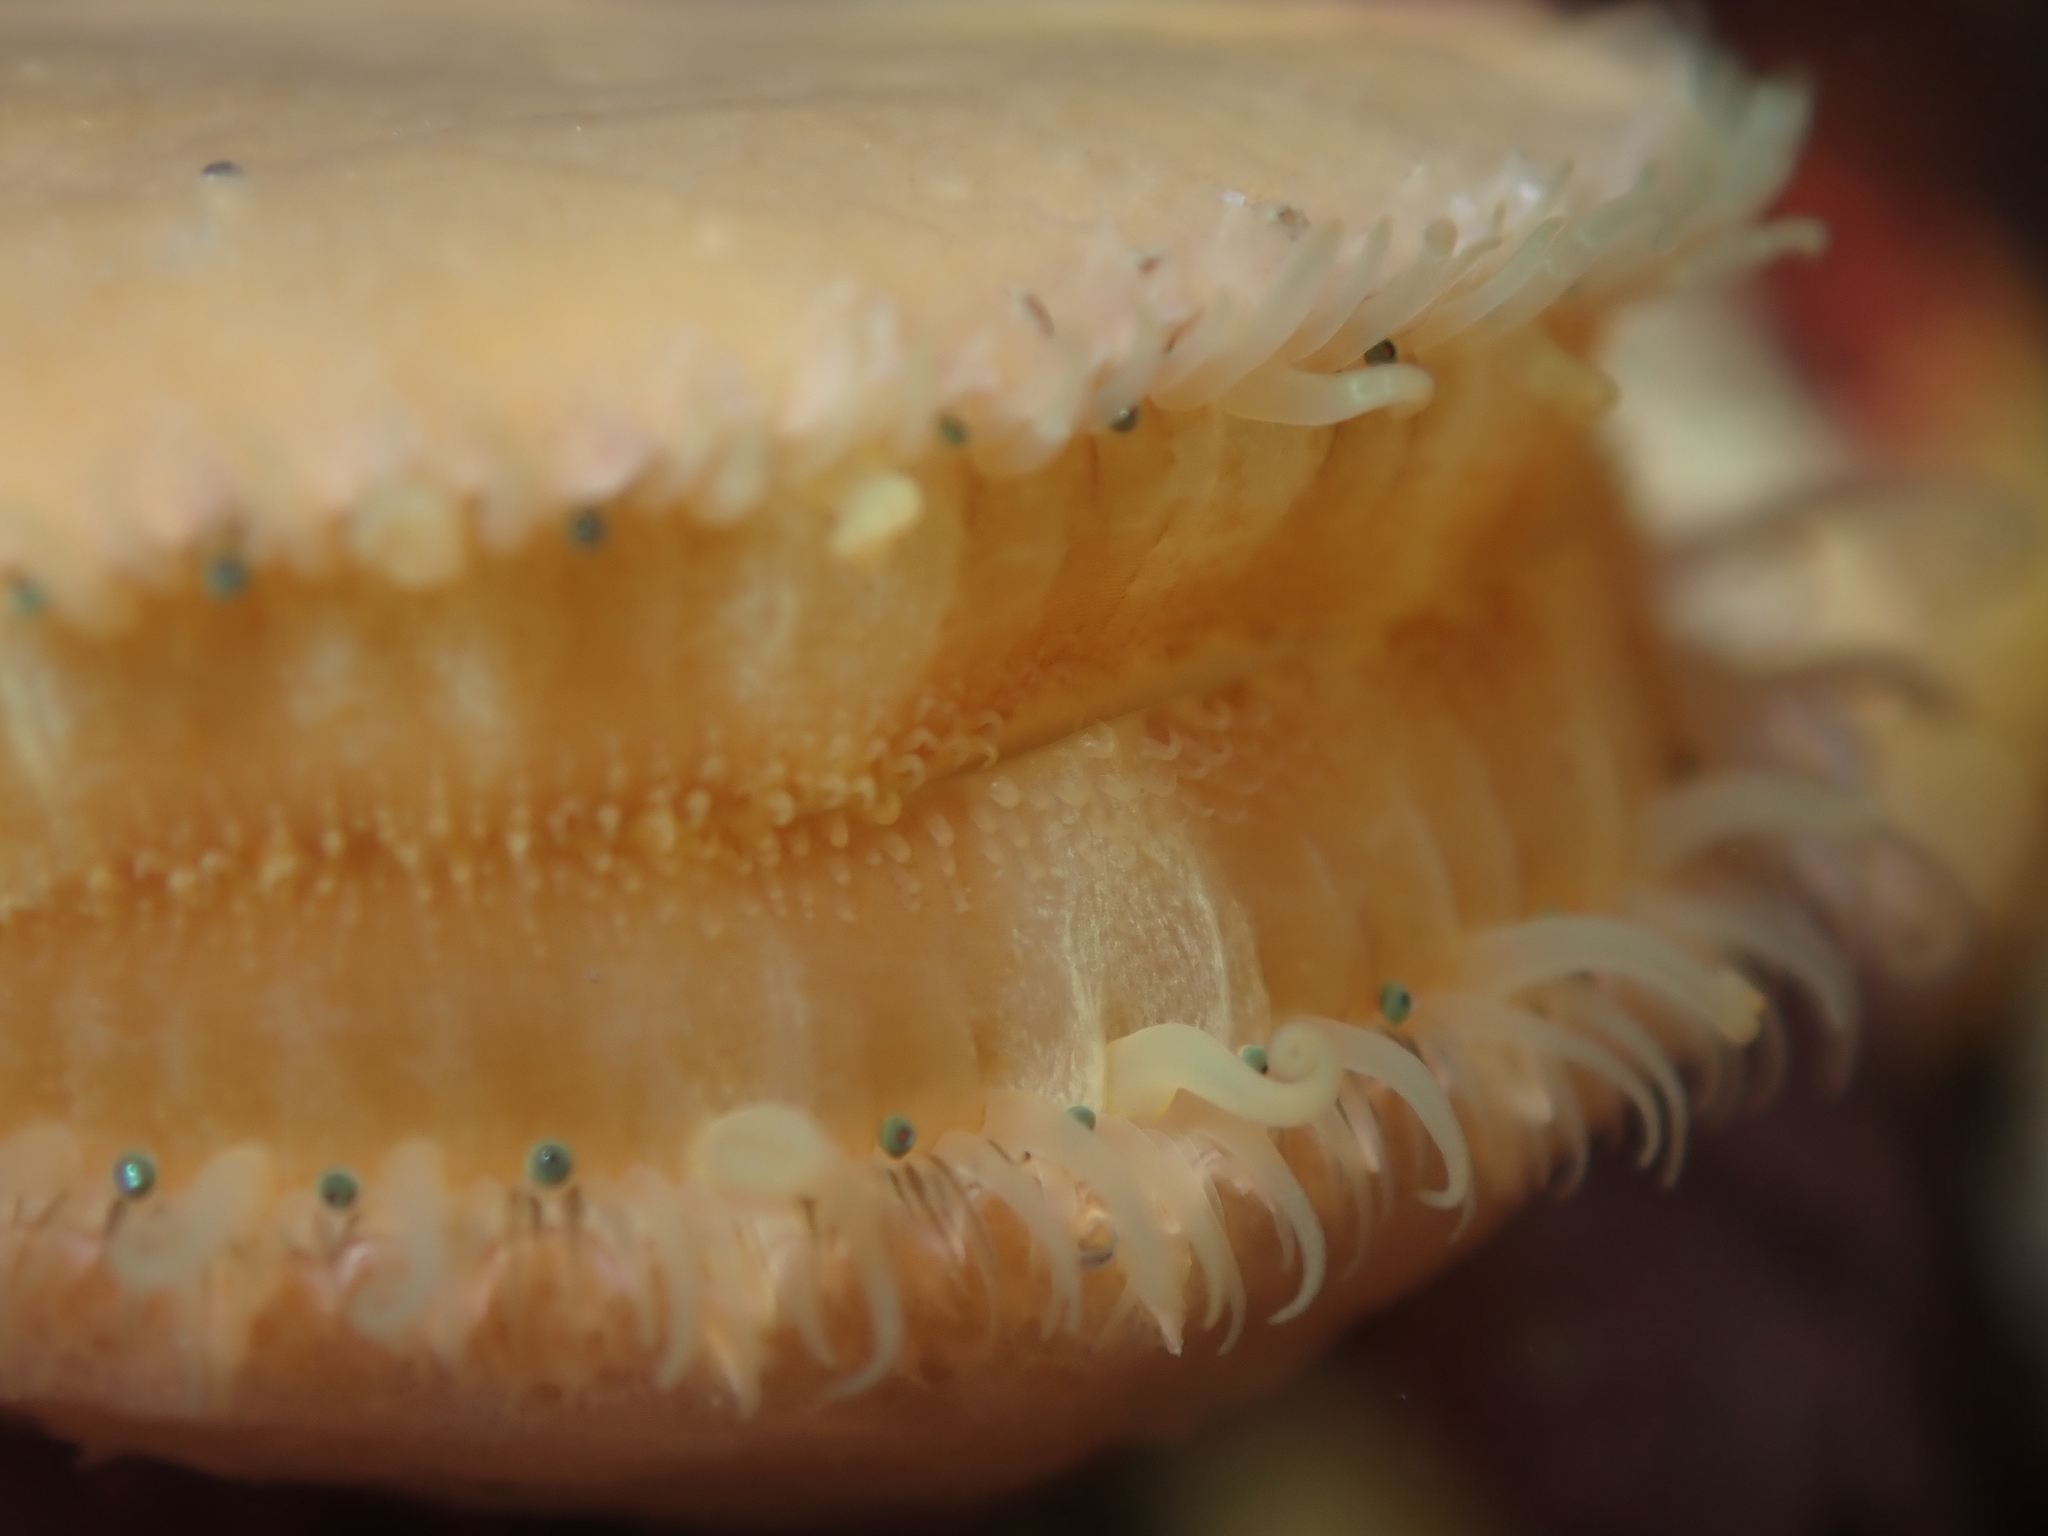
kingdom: Animalia
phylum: Mollusca
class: Bivalvia
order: Pectinida
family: Pectinidae
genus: Talochlamys
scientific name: Talochlamys zelandiae
